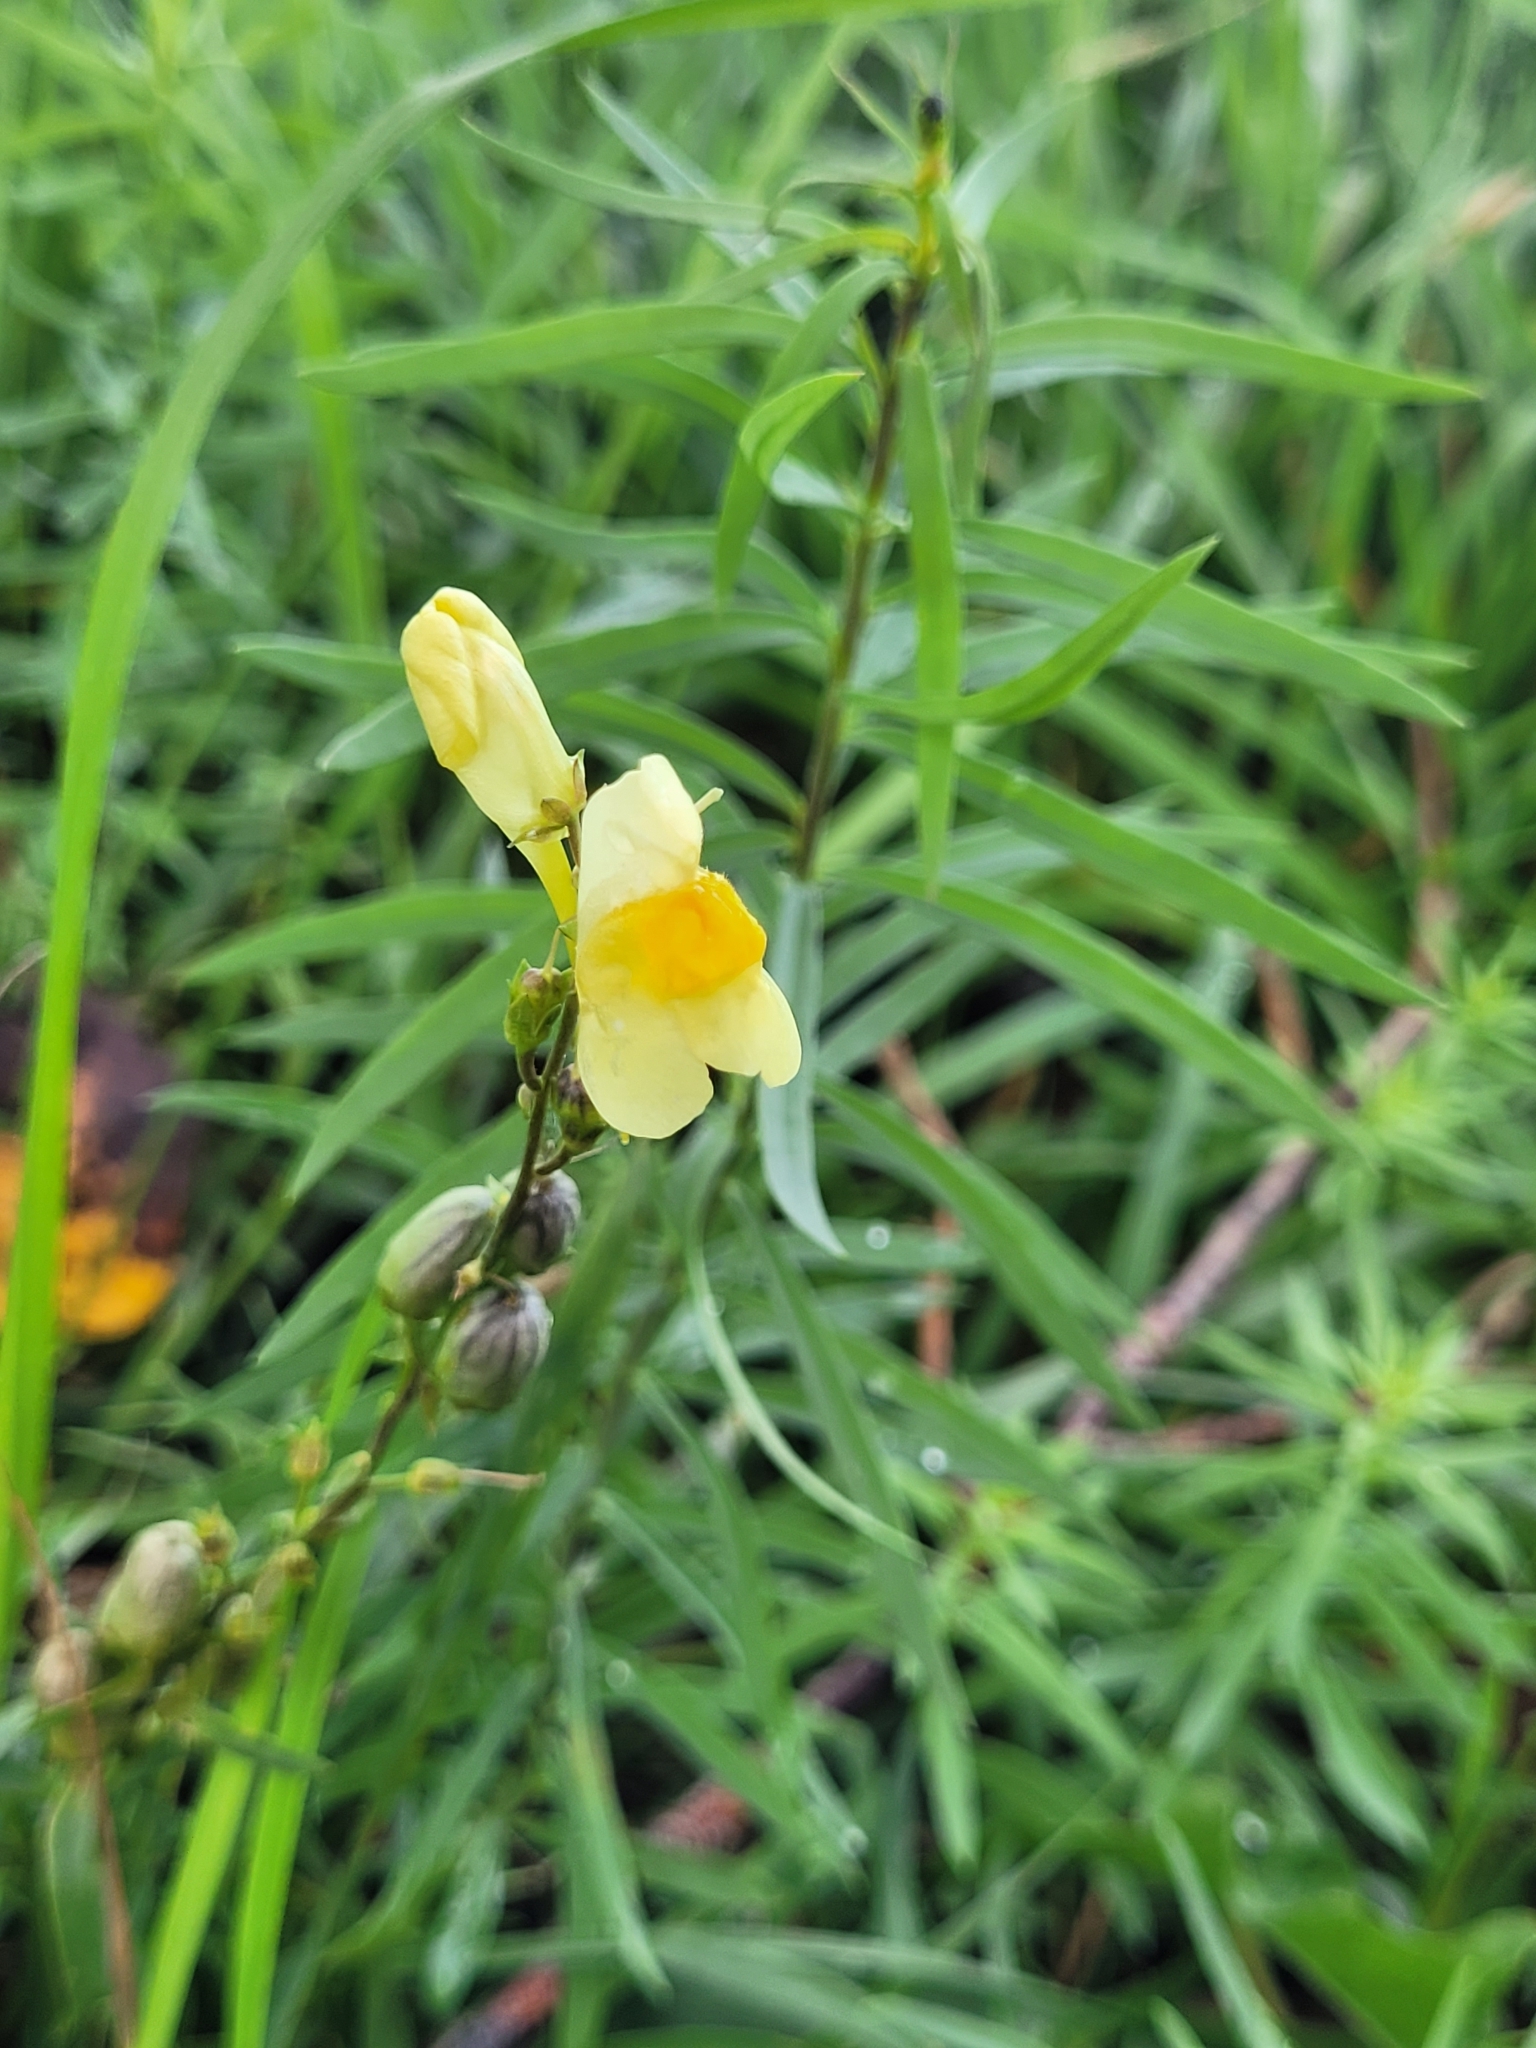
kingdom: Plantae
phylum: Tracheophyta
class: Magnoliopsida
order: Lamiales
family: Plantaginaceae
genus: Linaria
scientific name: Linaria vulgaris
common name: Butter and eggs
